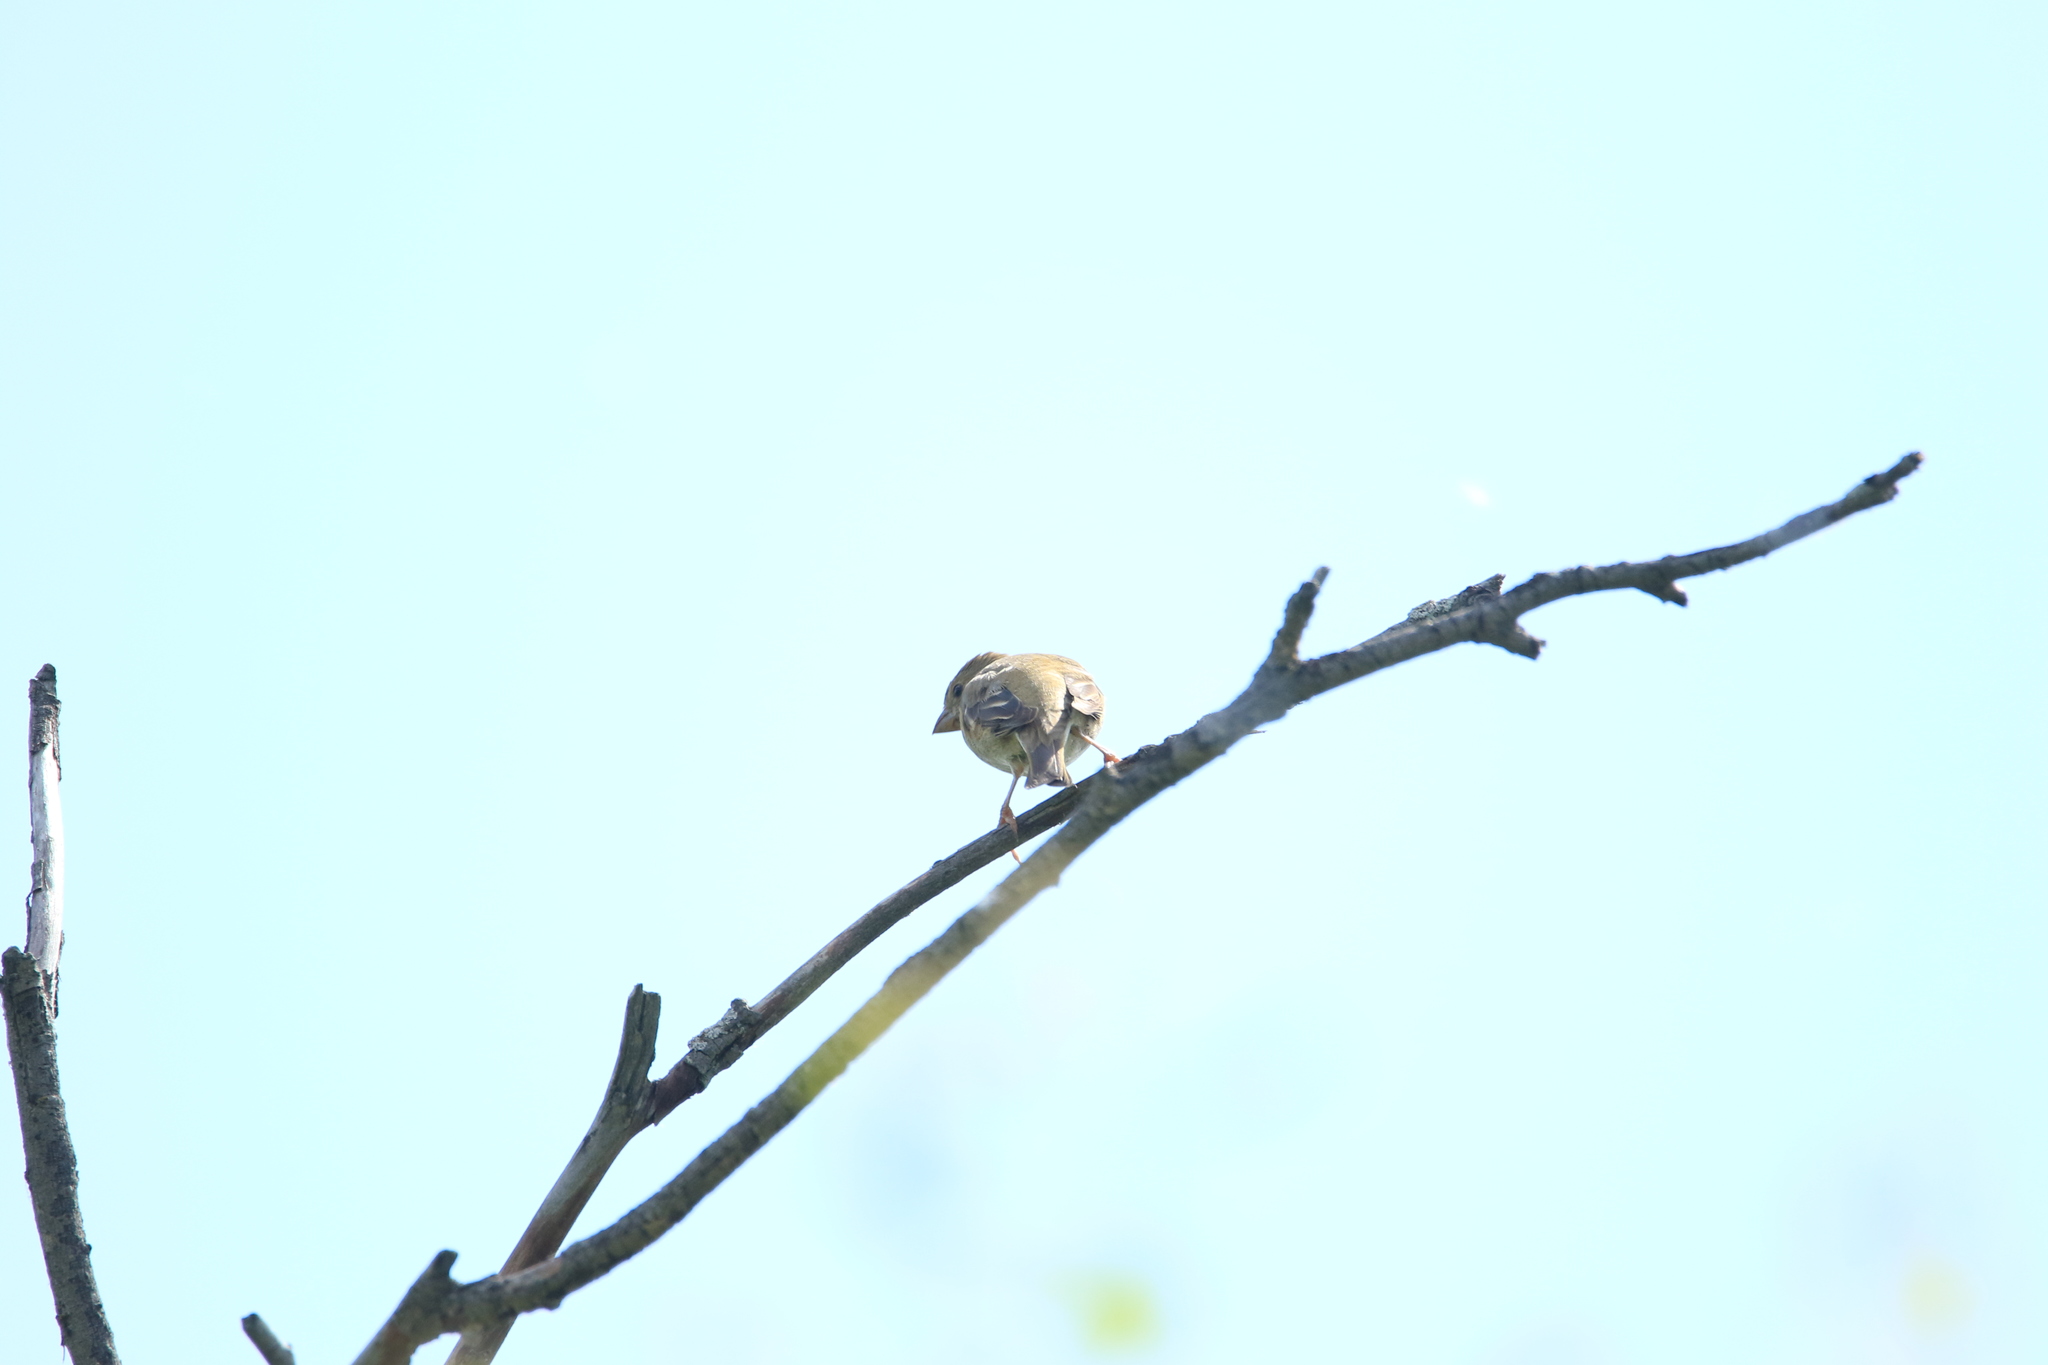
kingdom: Animalia
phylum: Chordata
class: Aves
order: Passeriformes
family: Fringillidae
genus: Carpodacus
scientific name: Carpodacus erythrinus
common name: Common rosefinch
